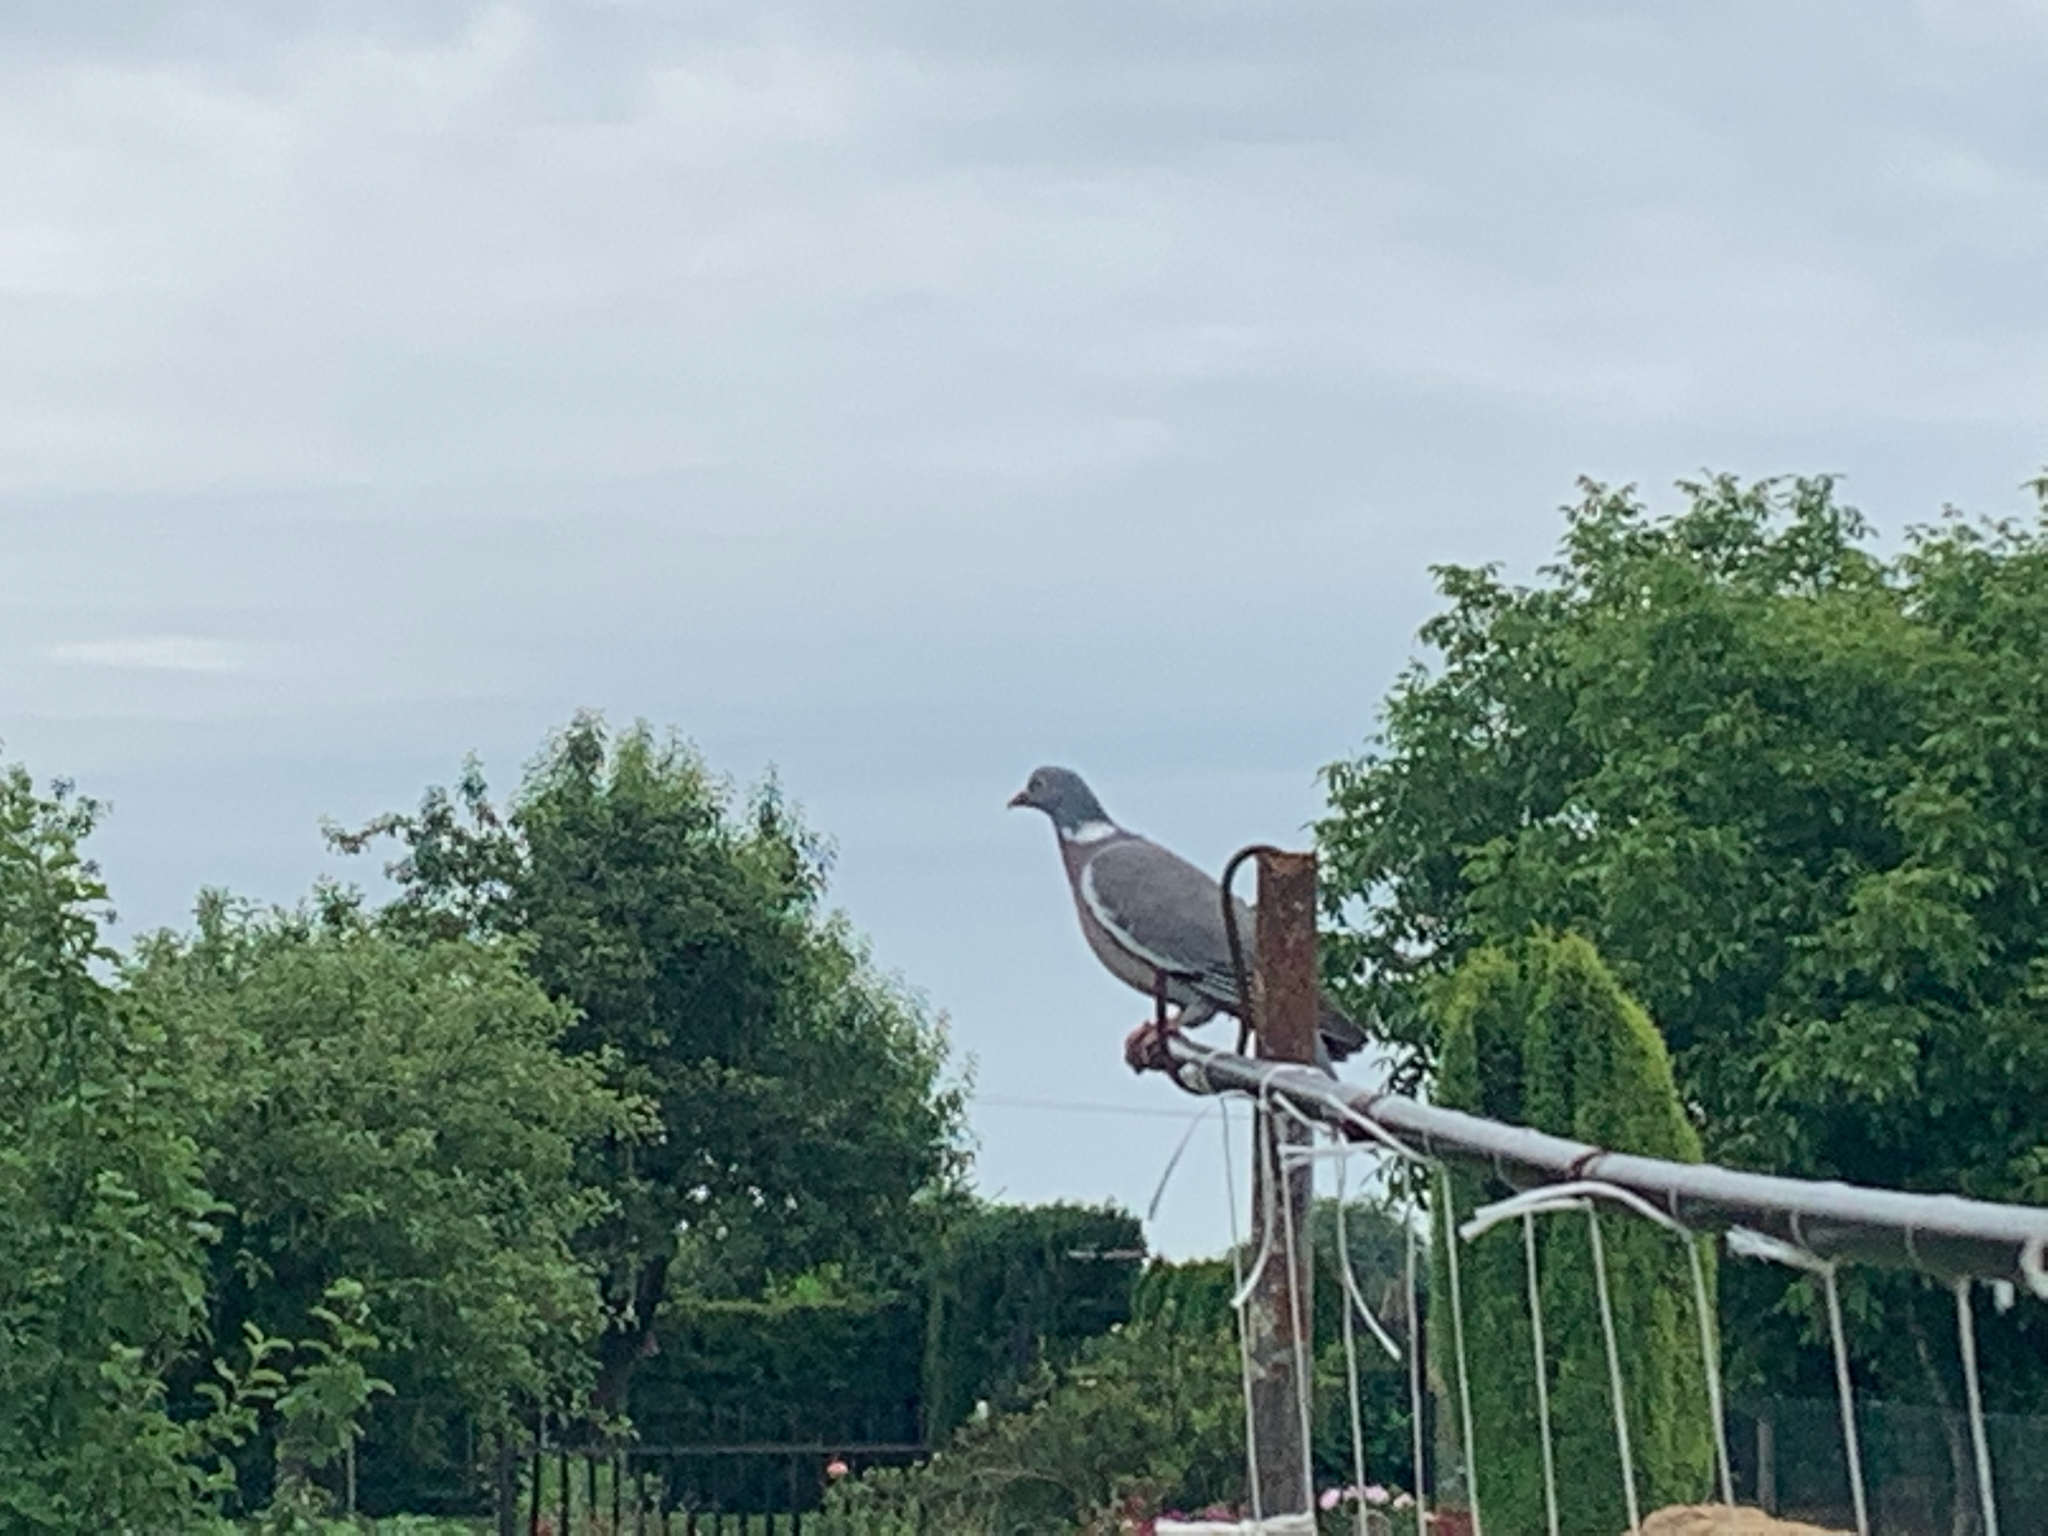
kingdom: Animalia
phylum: Chordata
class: Aves
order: Columbiformes
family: Columbidae
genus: Columba
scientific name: Columba palumbus
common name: Common wood pigeon
